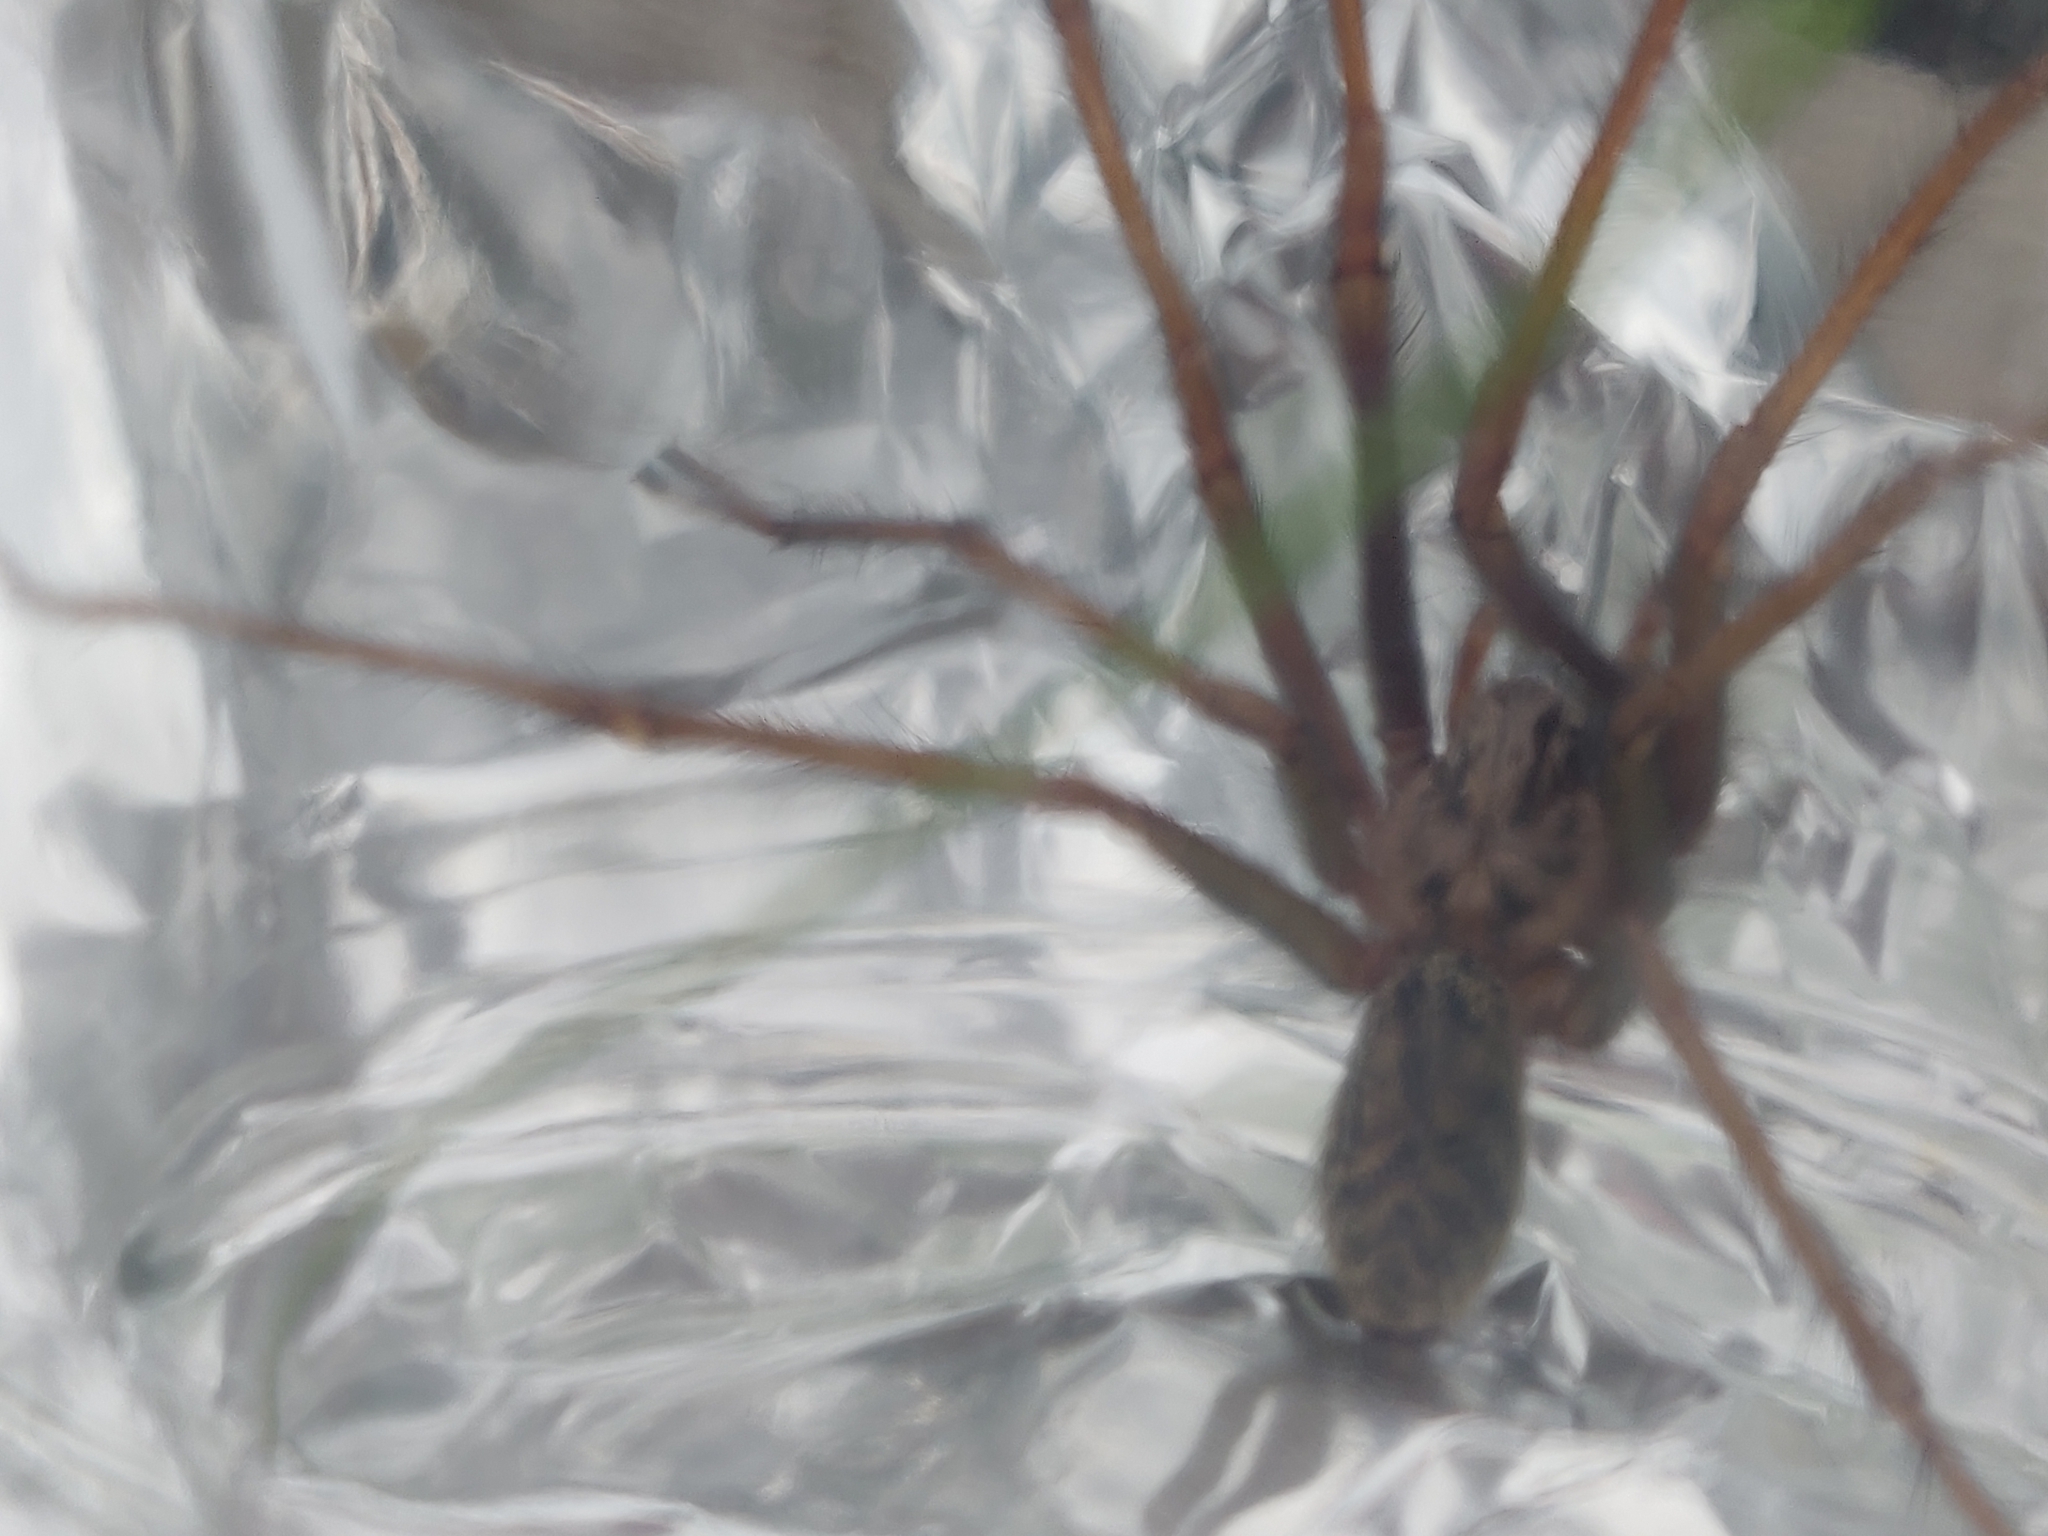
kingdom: Animalia
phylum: Arthropoda
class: Arachnida
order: Araneae
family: Agelenidae
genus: Eratigena
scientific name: Eratigena atrica
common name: Giant house spider
